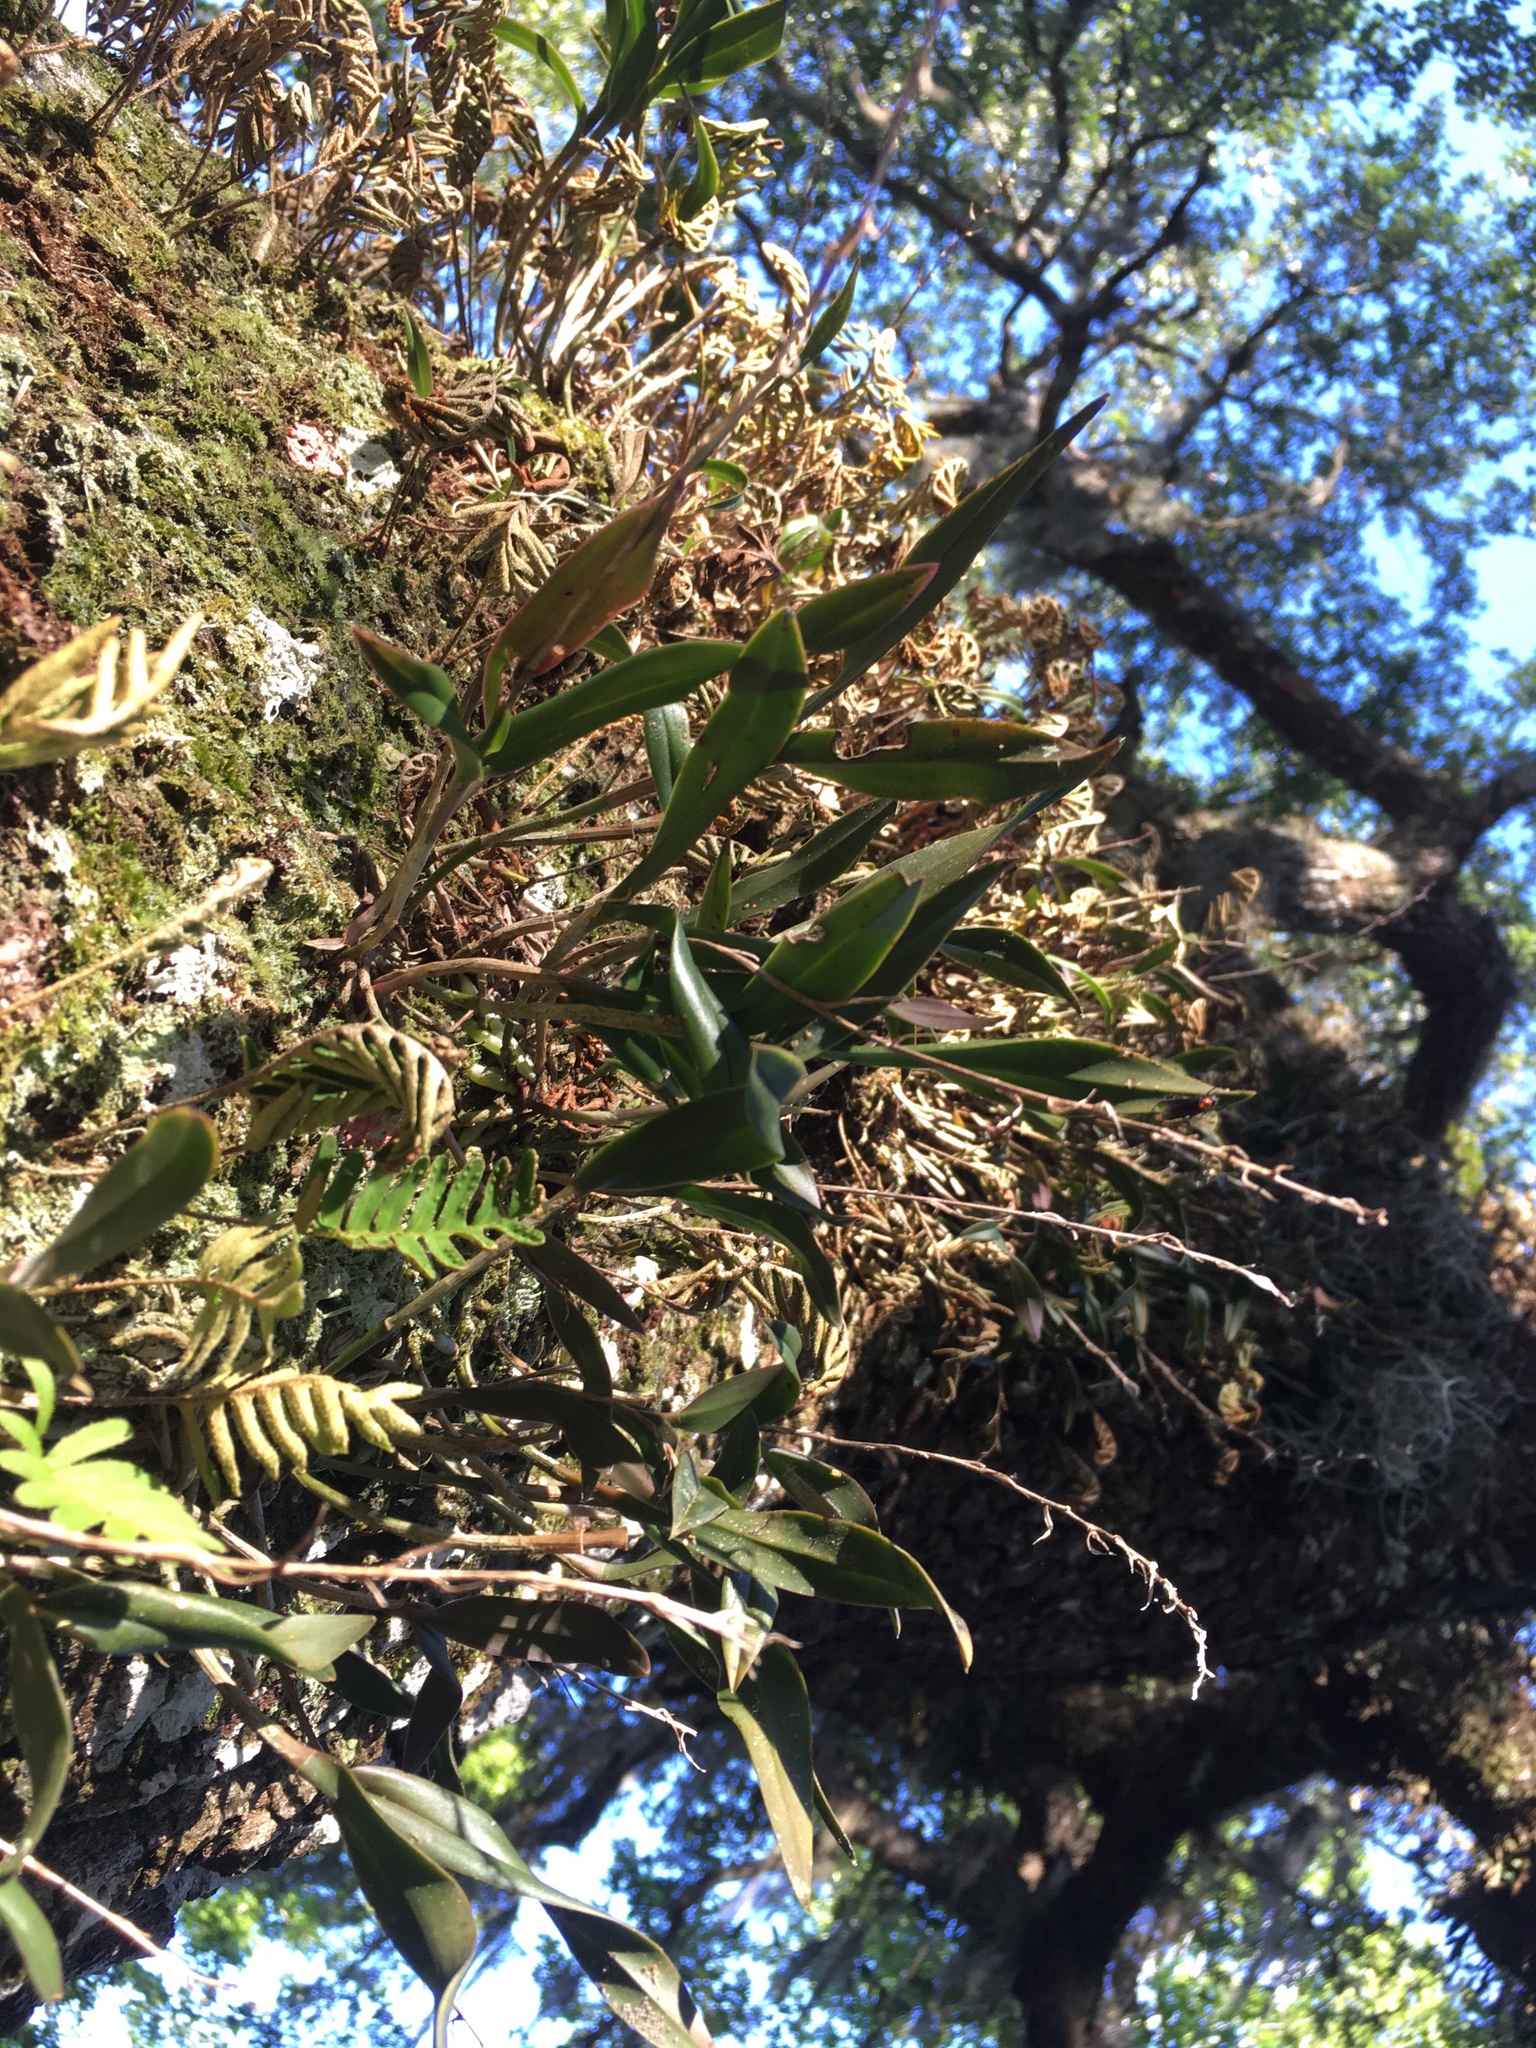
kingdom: Plantae
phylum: Tracheophyta
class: Liliopsida
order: Asparagales
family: Orchidaceae
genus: Epidendrum
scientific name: Epidendrum conopseum
